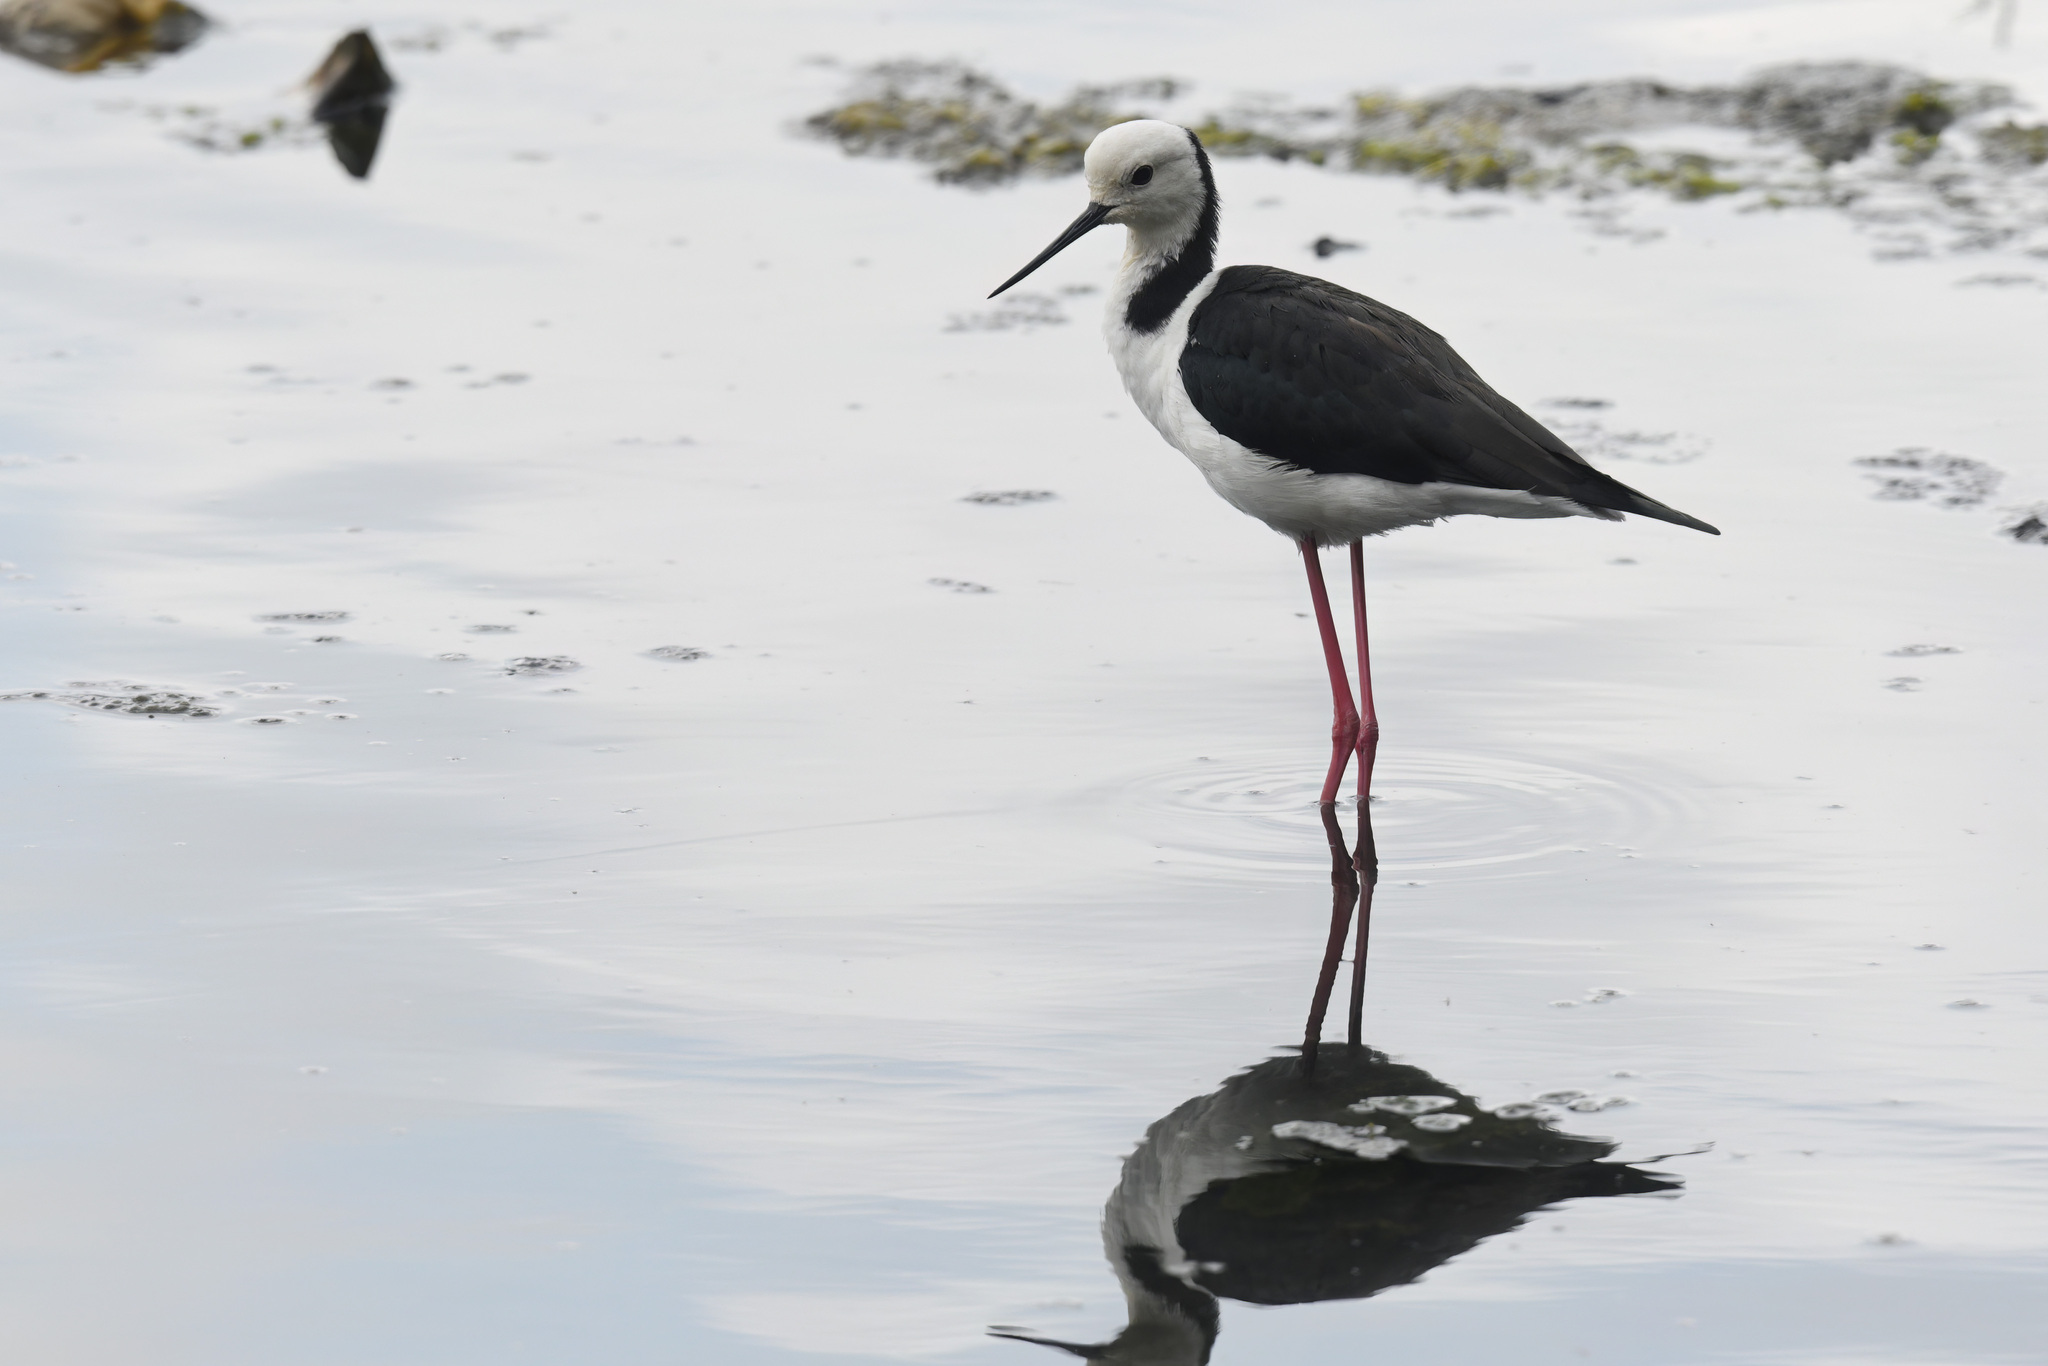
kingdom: Animalia
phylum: Chordata
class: Aves
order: Charadriiformes
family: Recurvirostridae
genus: Himantopus
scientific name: Himantopus leucocephalus
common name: White-headed stilt
